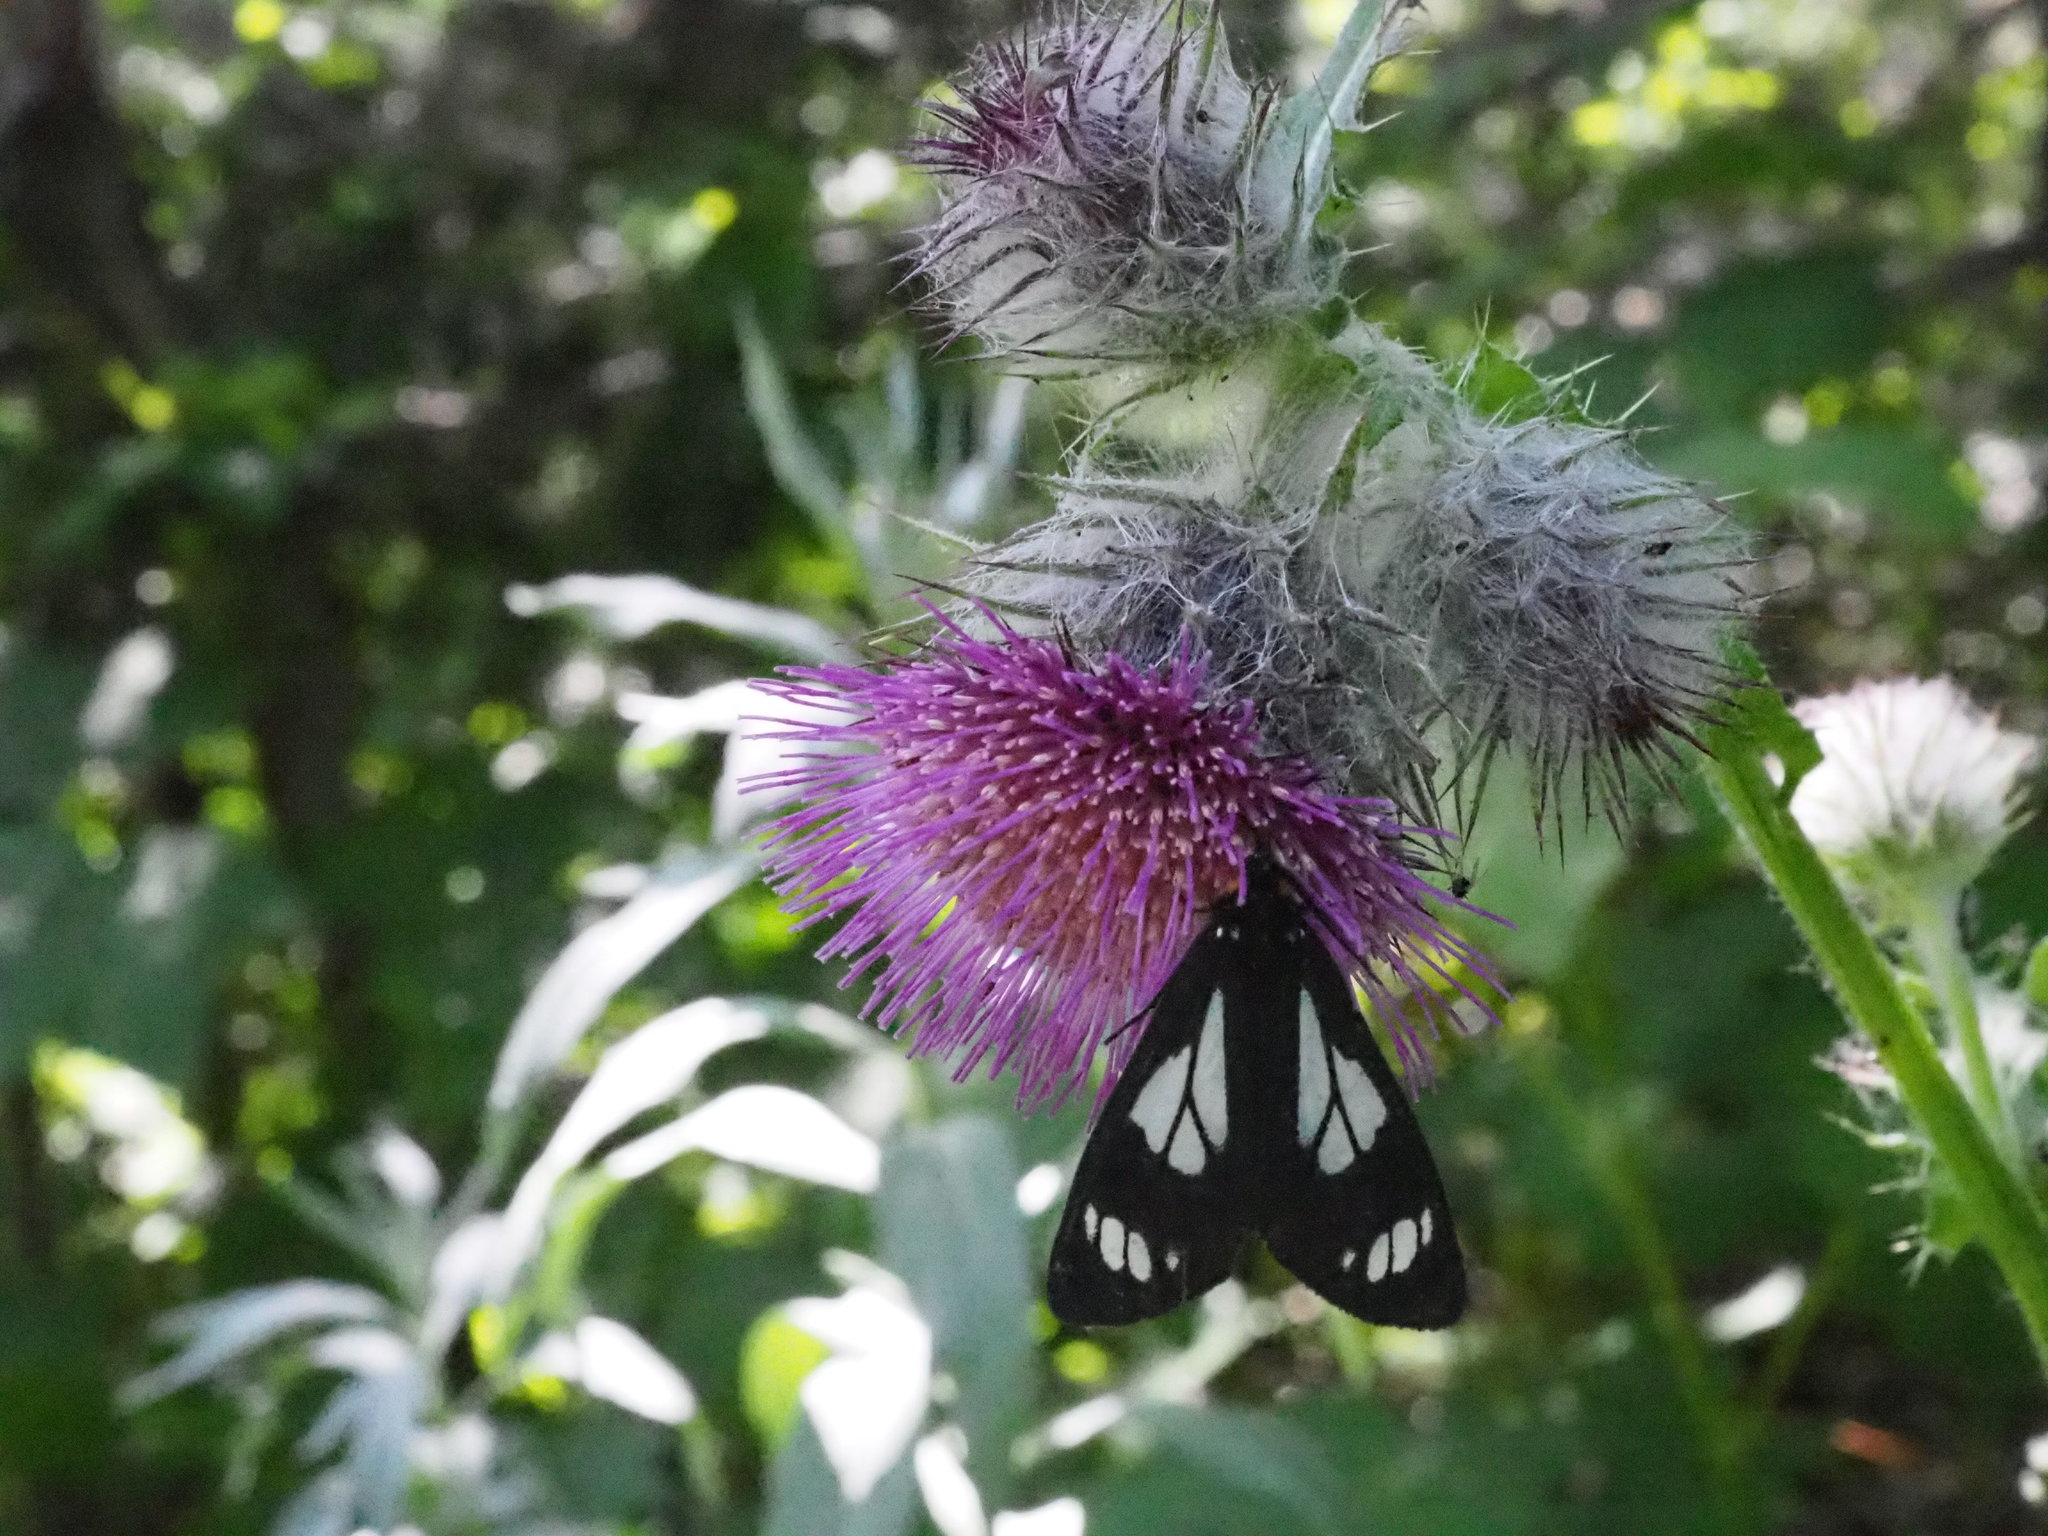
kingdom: Animalia
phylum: Arthropoda
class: Insecta
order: Lepidoptera
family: Erebidae
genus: Gnophaela
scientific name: Gnophaela vermiculata
